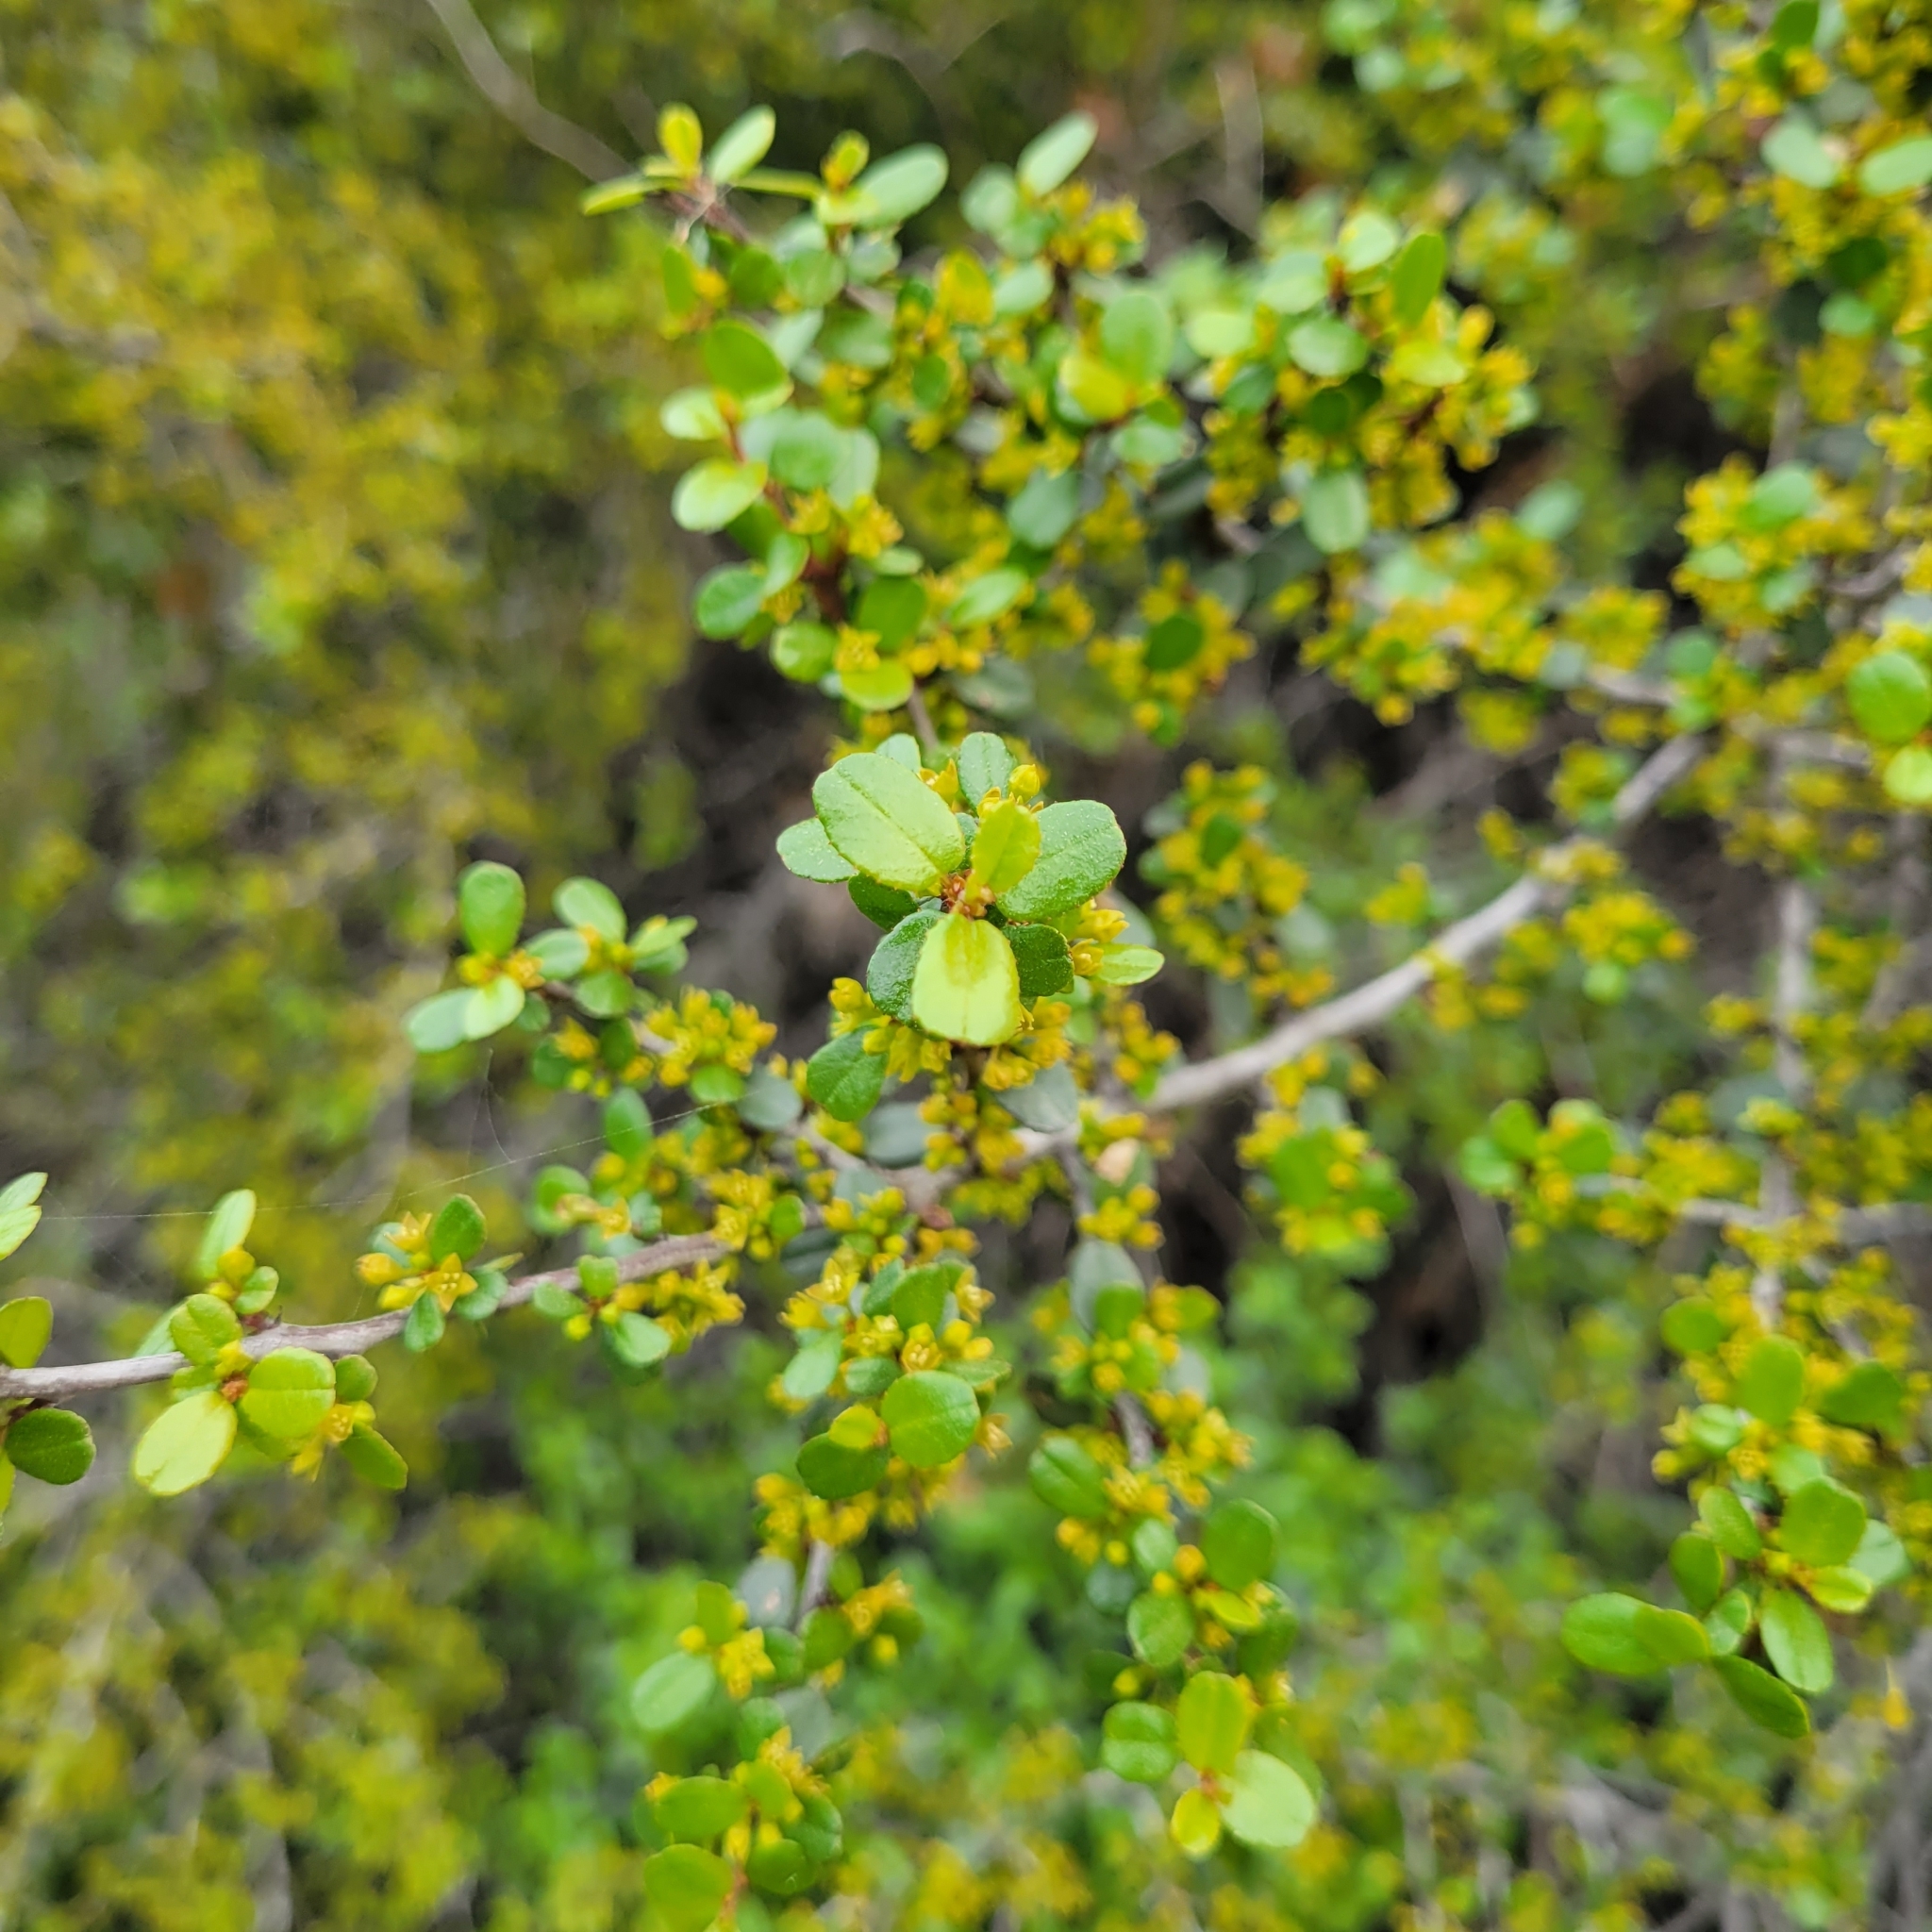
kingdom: Plantae
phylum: Tracheophyta
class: Magnoliopsida
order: Rosales
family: Rhamnaceae
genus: Endotropis
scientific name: Endotropis crocea
